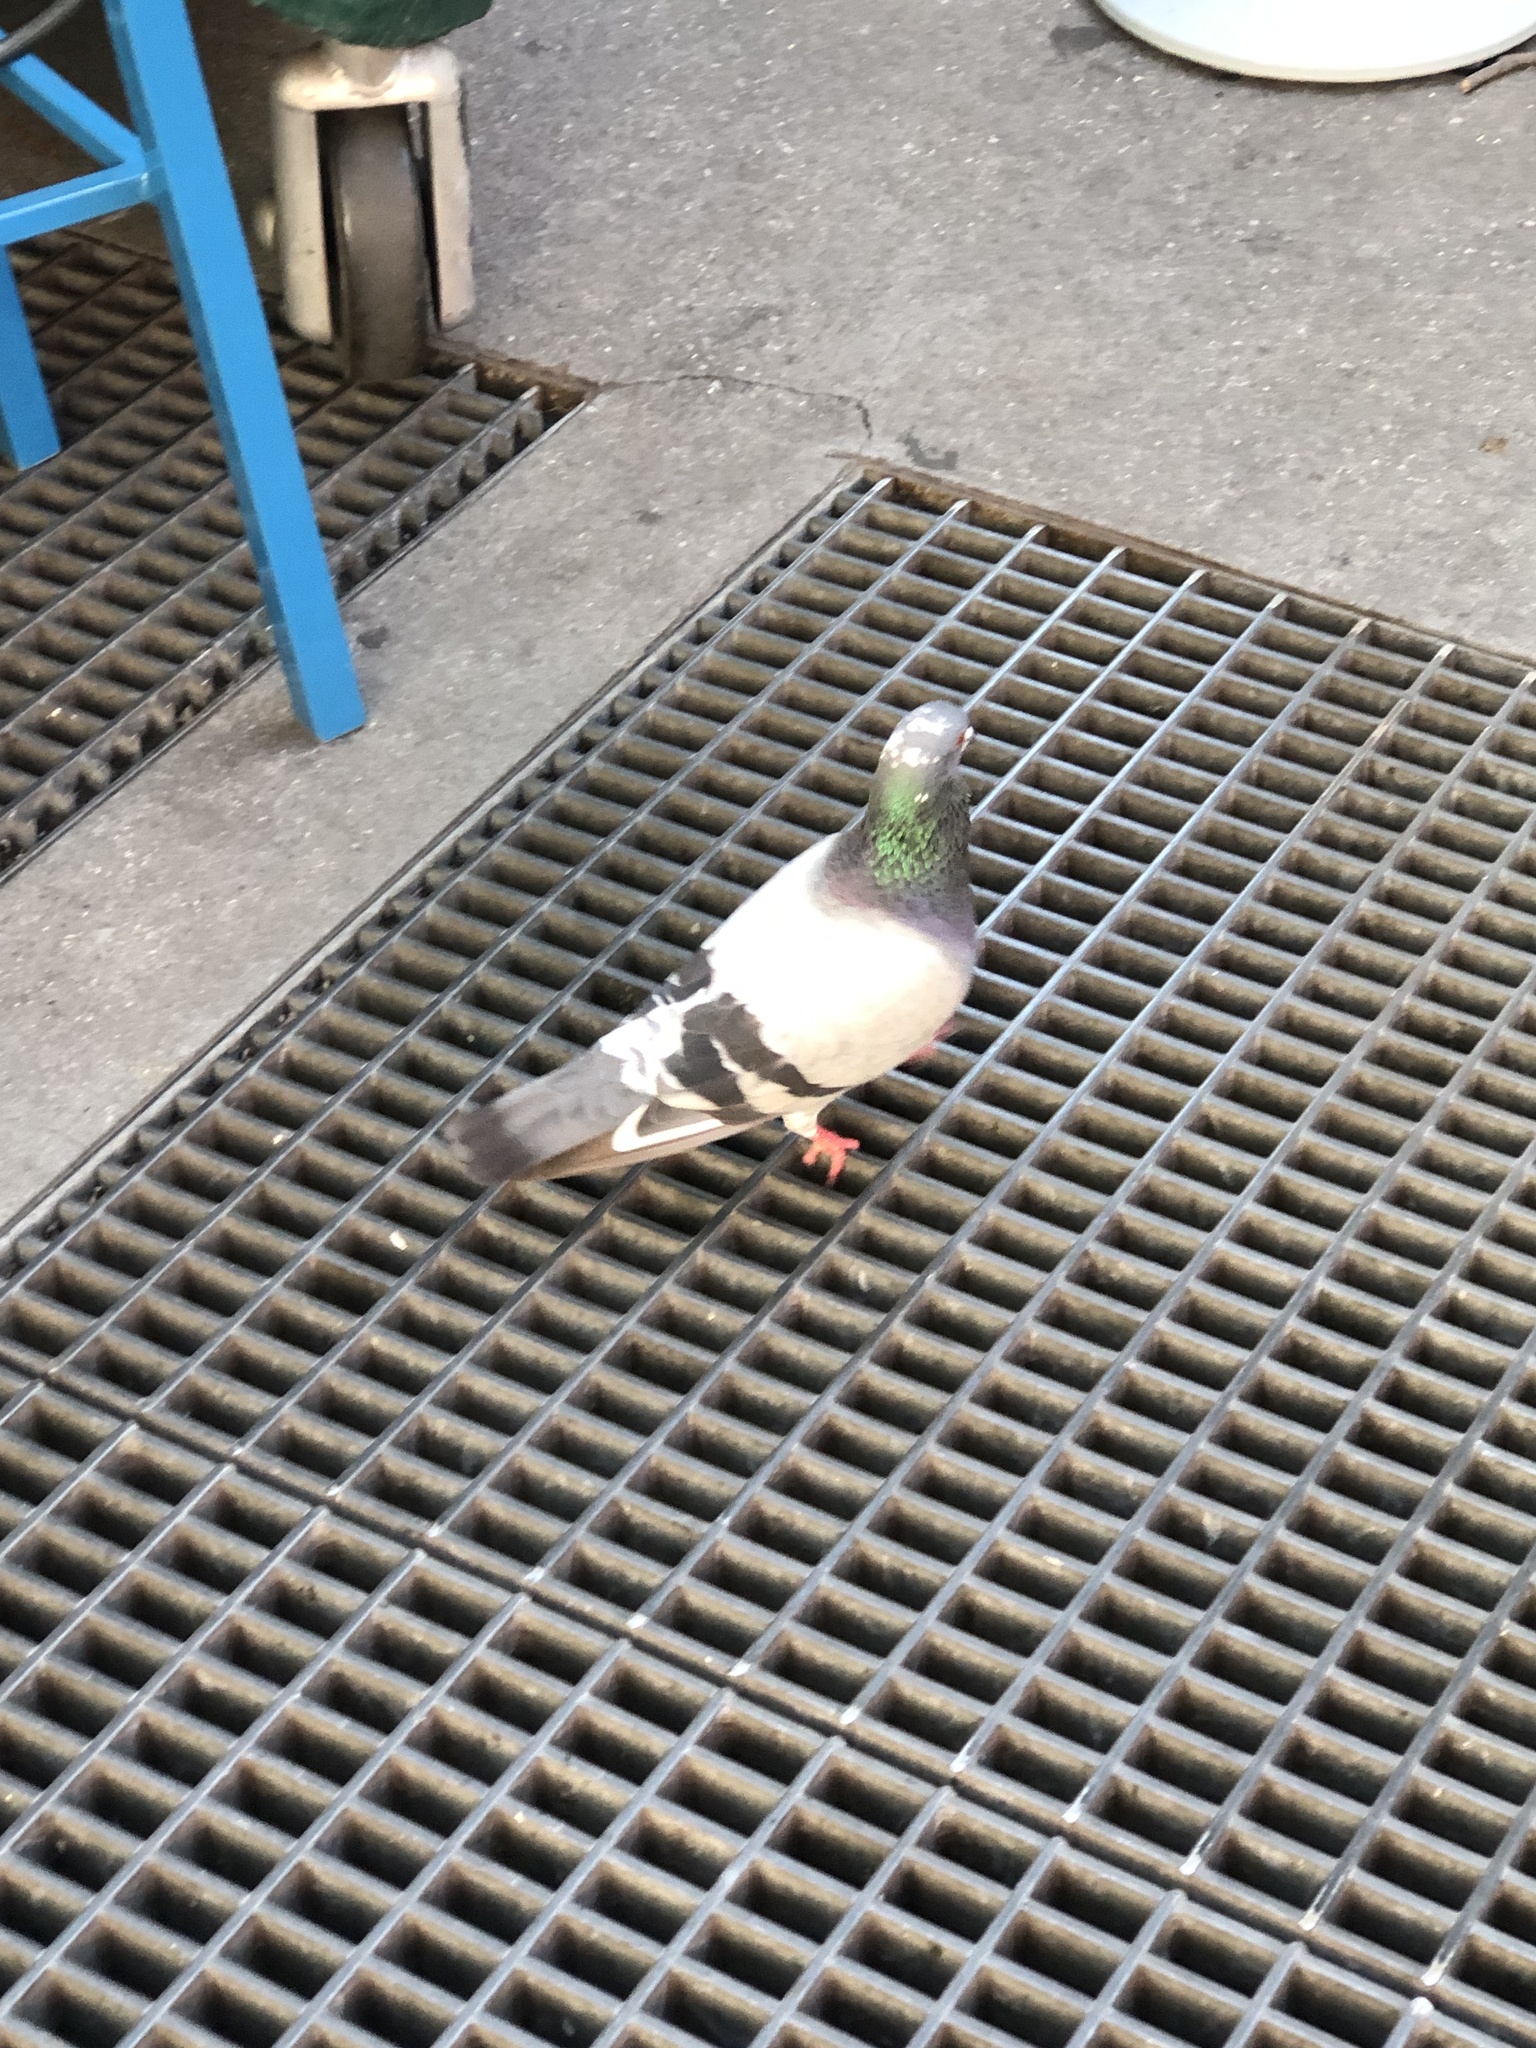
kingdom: Animalia
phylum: Chordata
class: Aves
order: Columbiformes
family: Columbidae
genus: Columba
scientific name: Columba livia
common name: Rock pigeon
